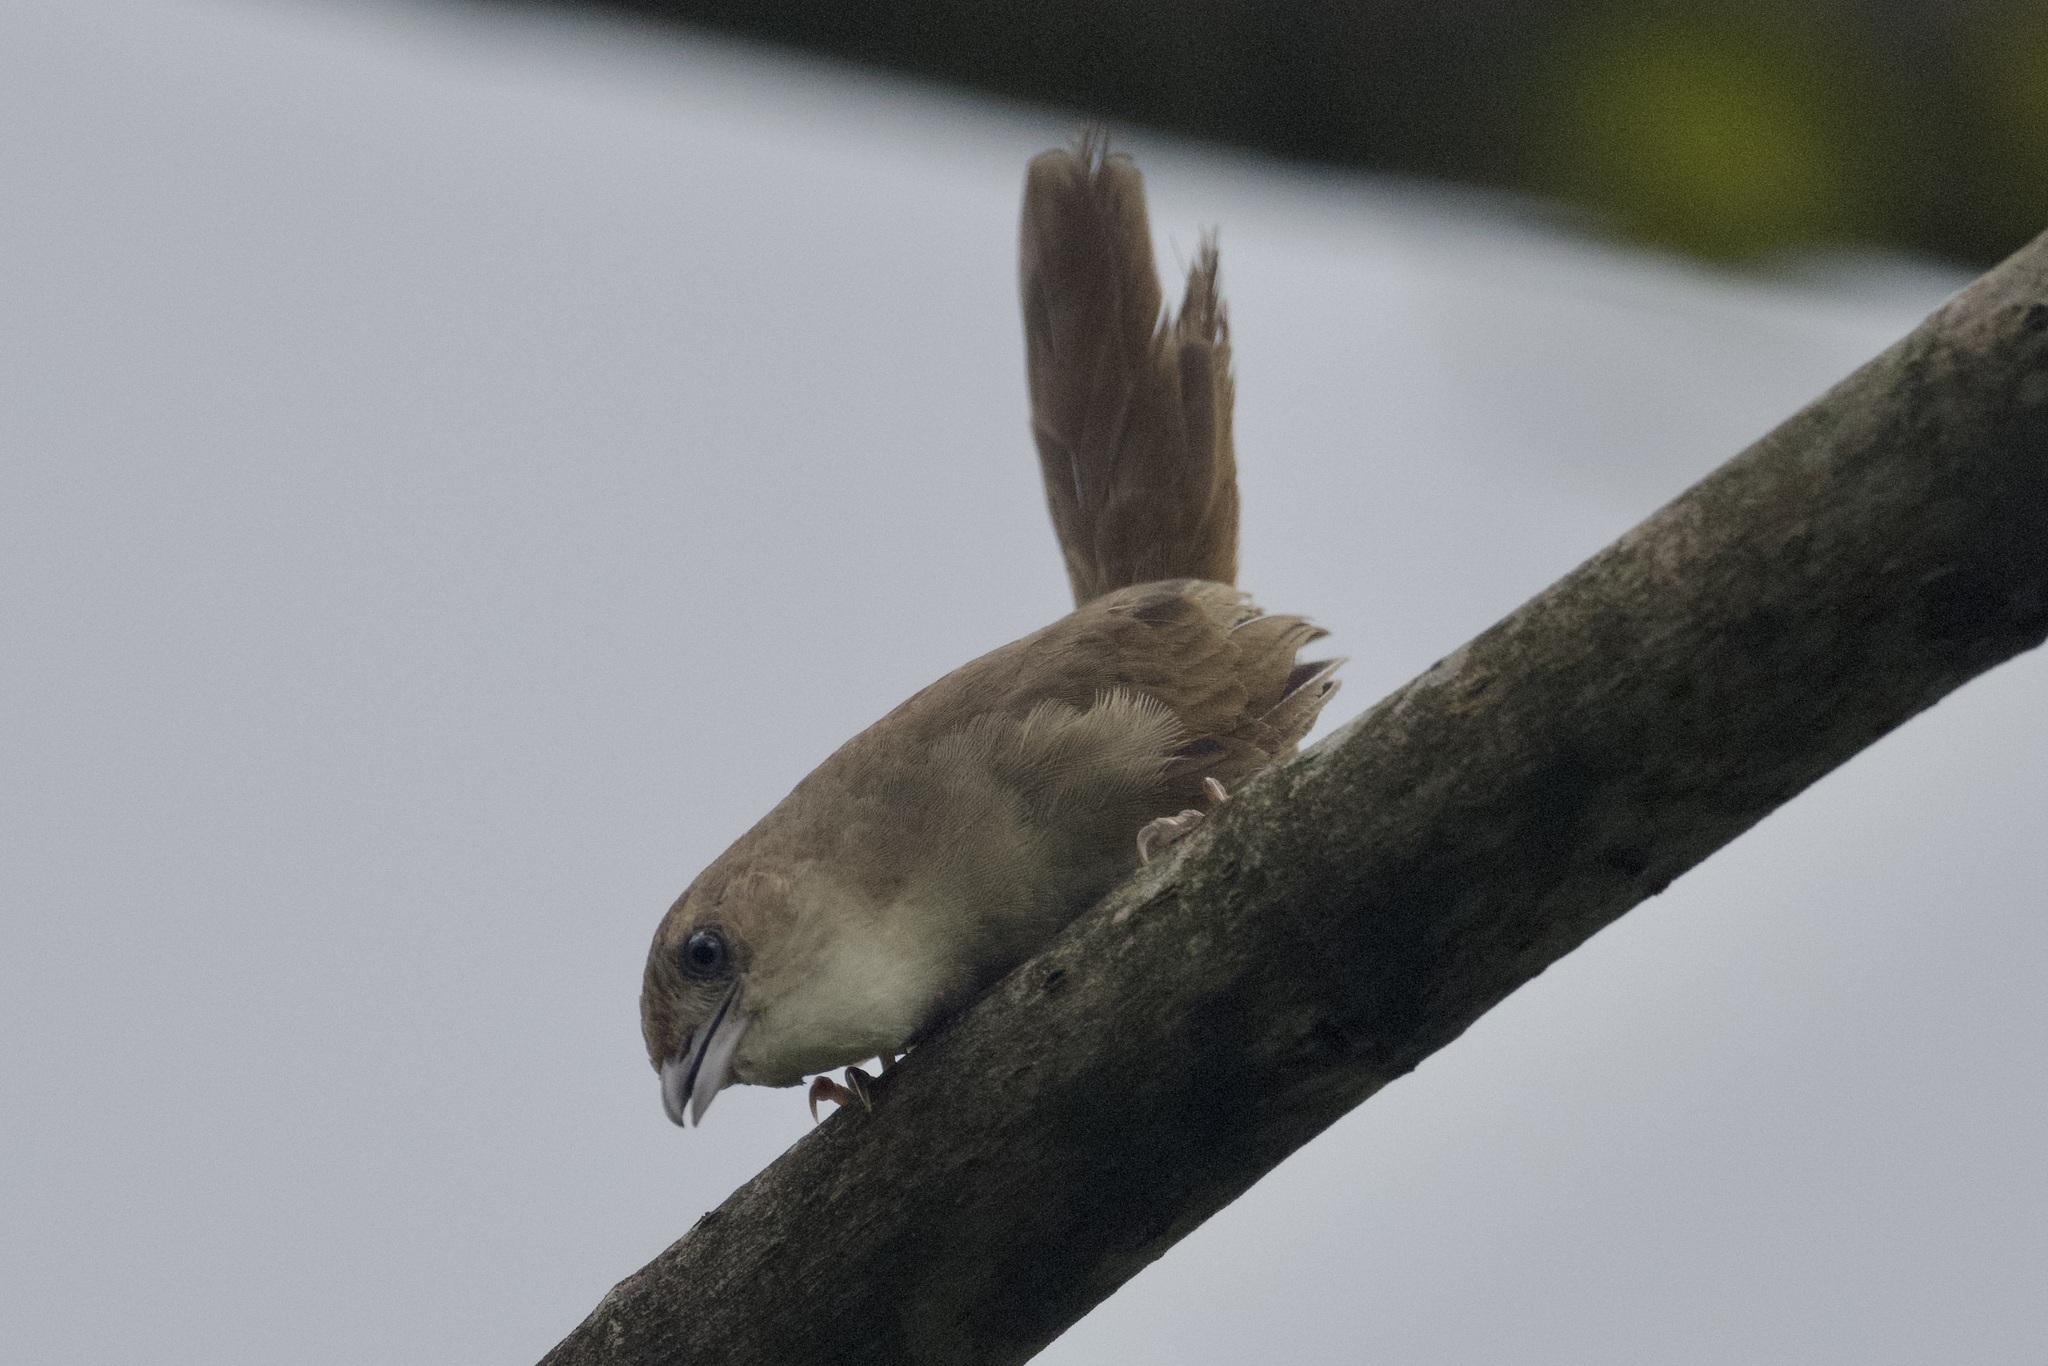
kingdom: Animalia
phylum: Chordata
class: Aves
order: Passeriformes
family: Furnariidae
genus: Phacellodomus
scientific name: Phacellodomus inornatus
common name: Plain thornbird
